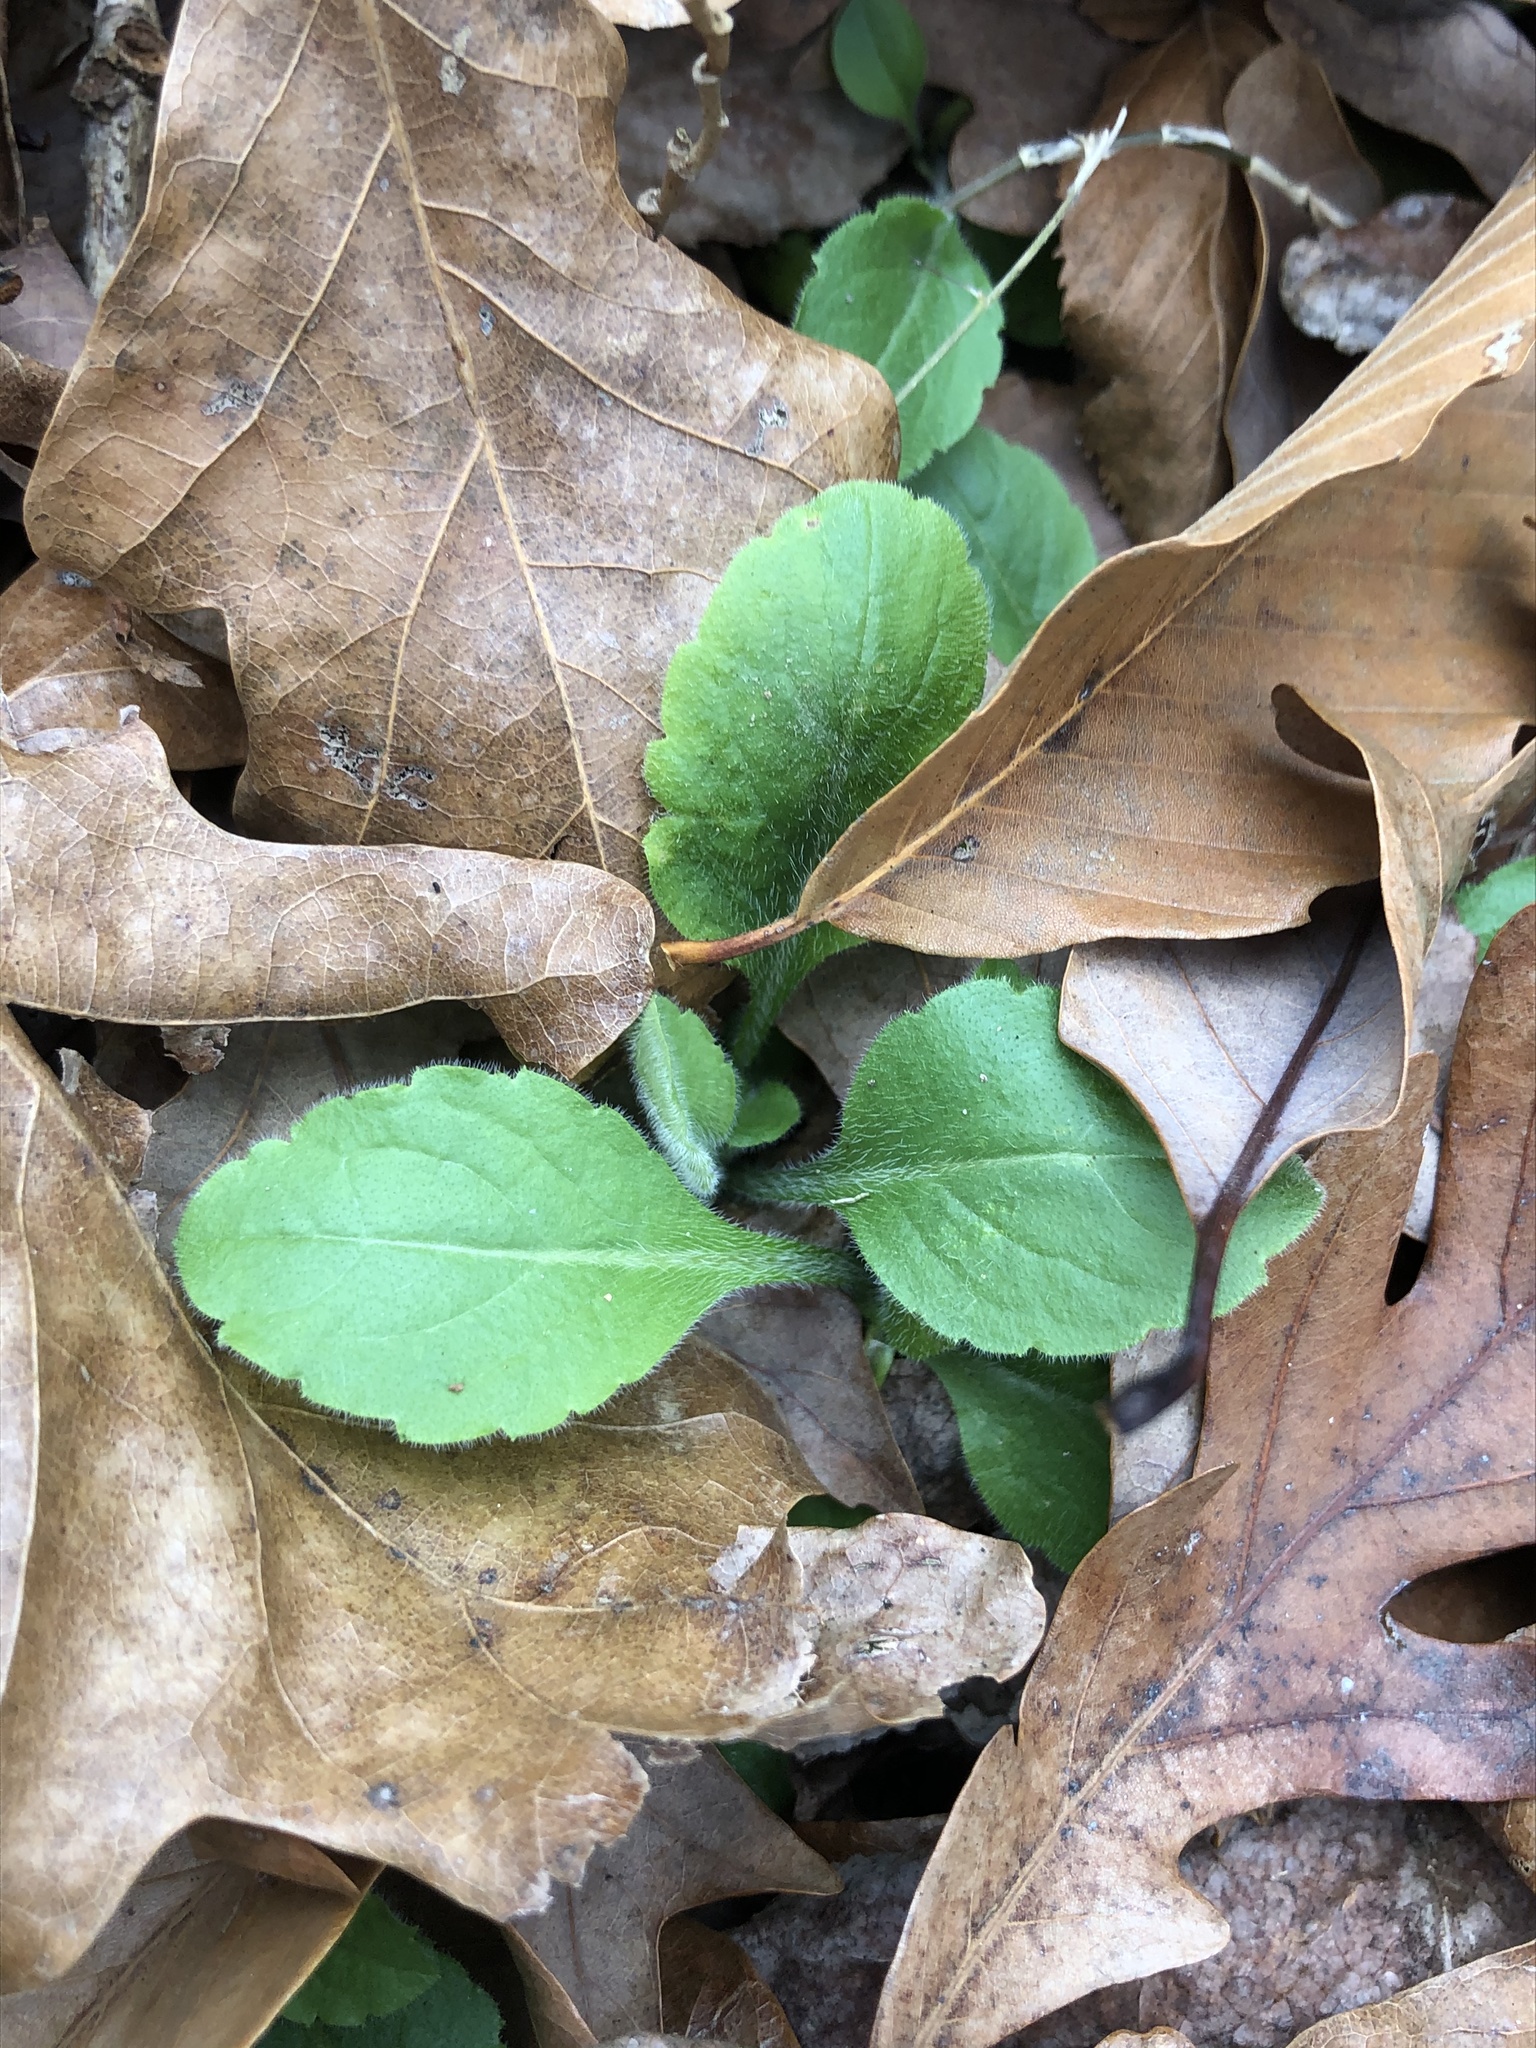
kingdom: Plantae
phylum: Tracheophyta
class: Magnoliopsida
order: Asterales
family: Asteraceae
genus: Erigeron
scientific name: Erigeron philadelphicus
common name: Robin's-plantain
